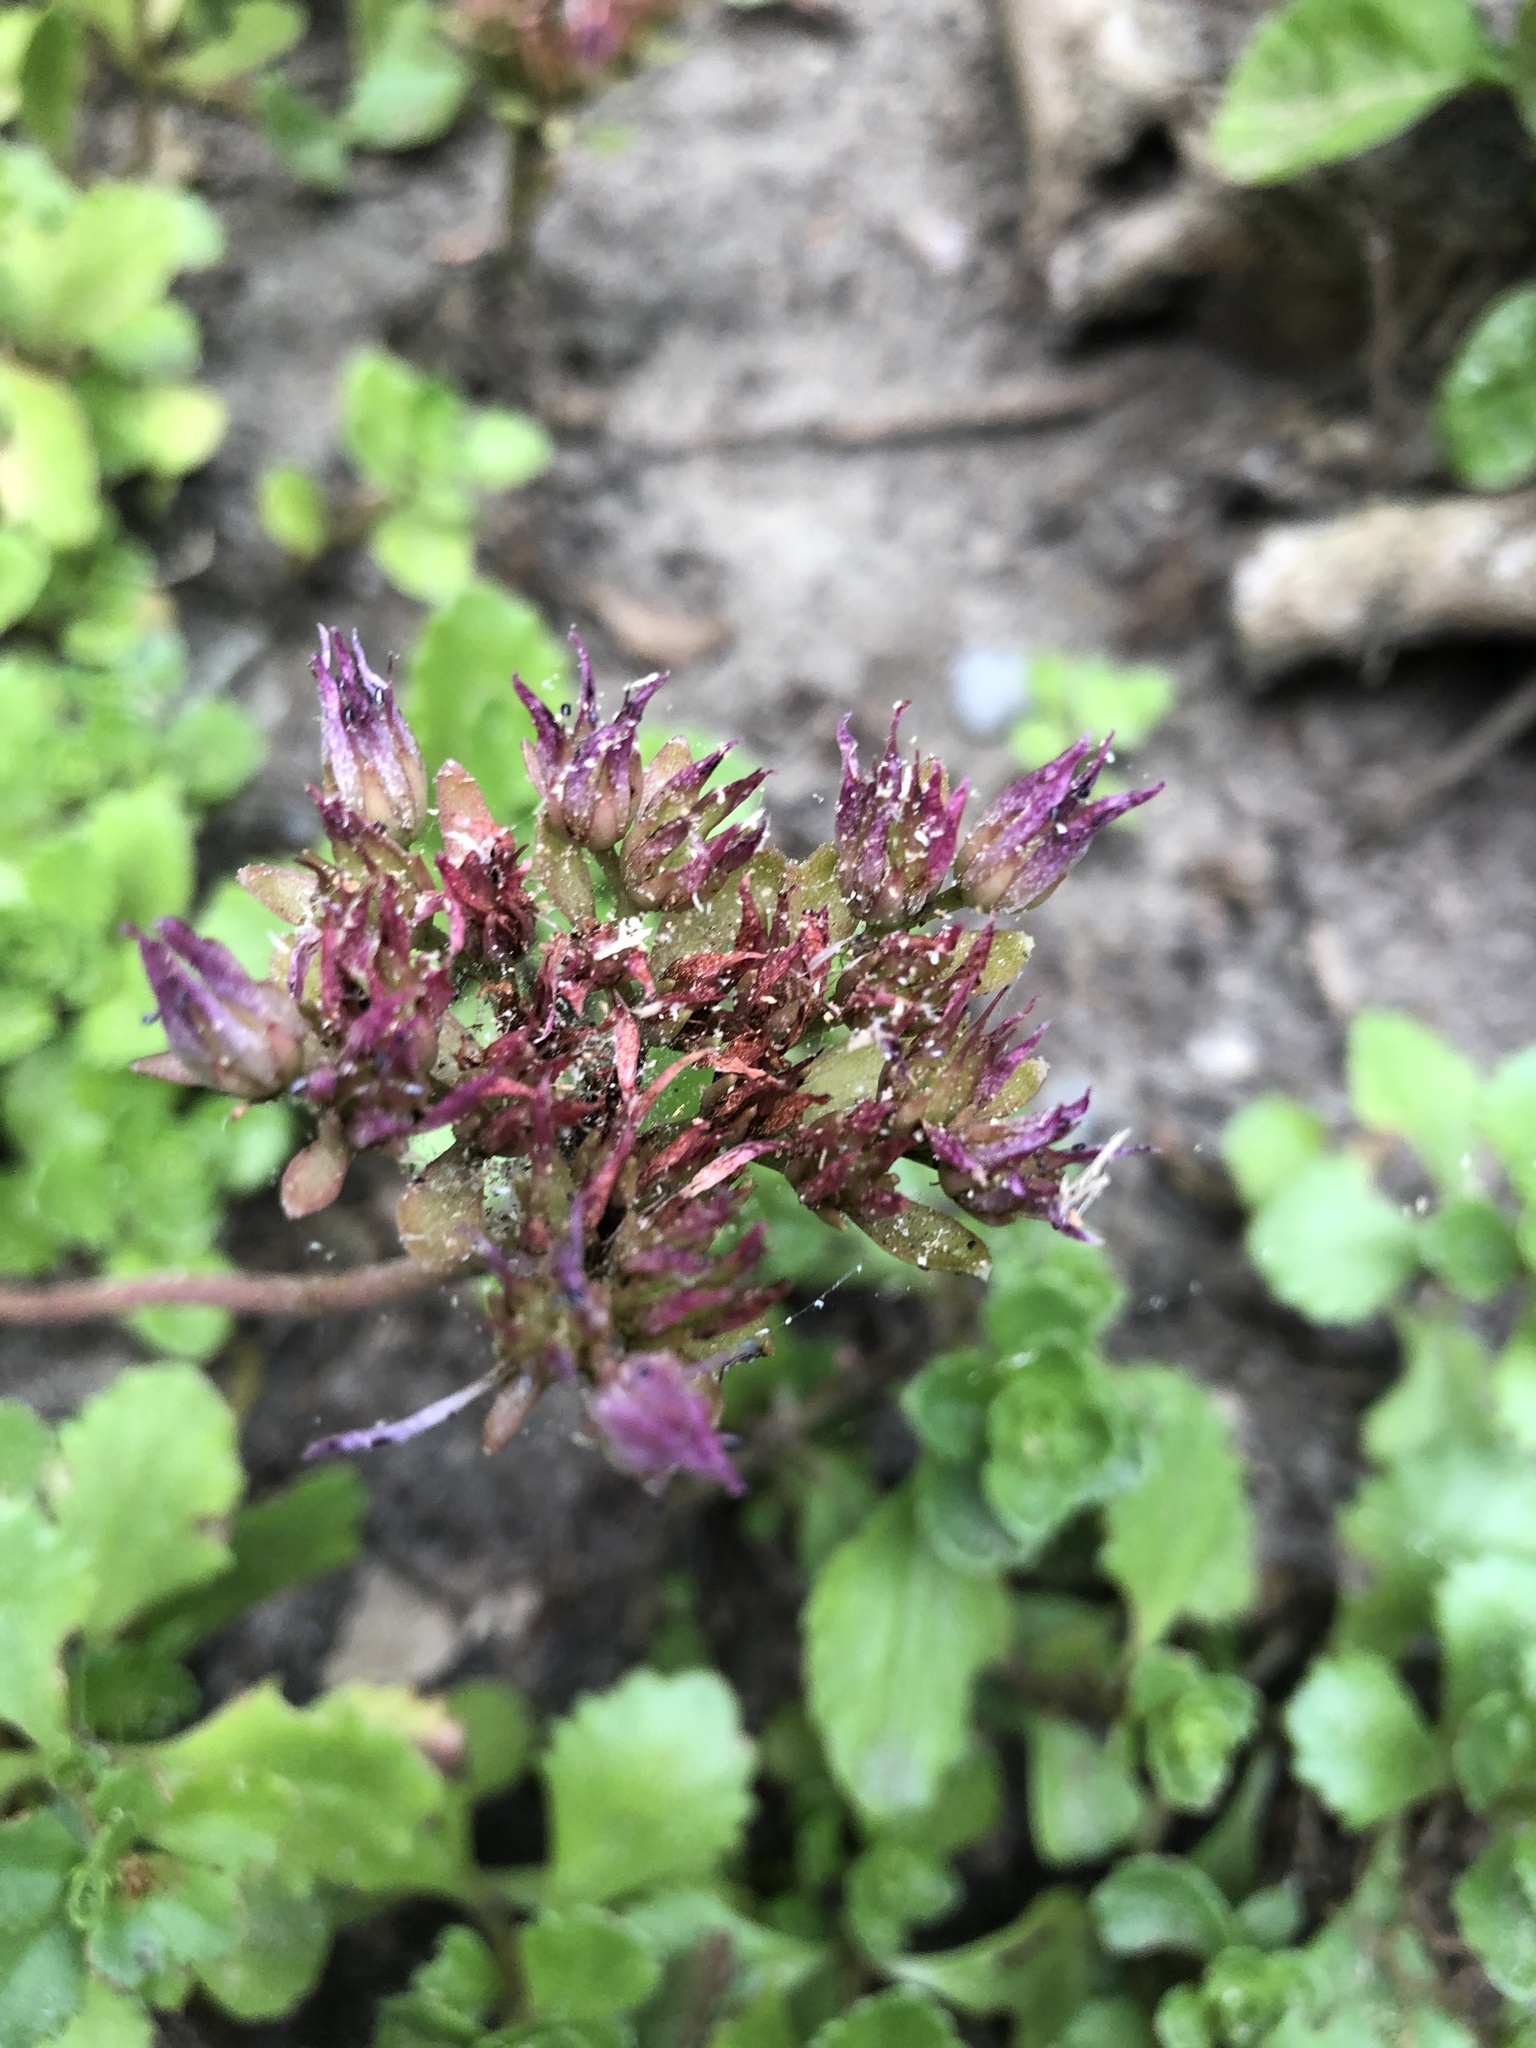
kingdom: Plantae
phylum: Tracheophyta
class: Magnoliopsida
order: Saxifragales
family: Crassulaceae
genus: Phedimus
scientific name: Phedimus spurius
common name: Caucasian stonecrop
